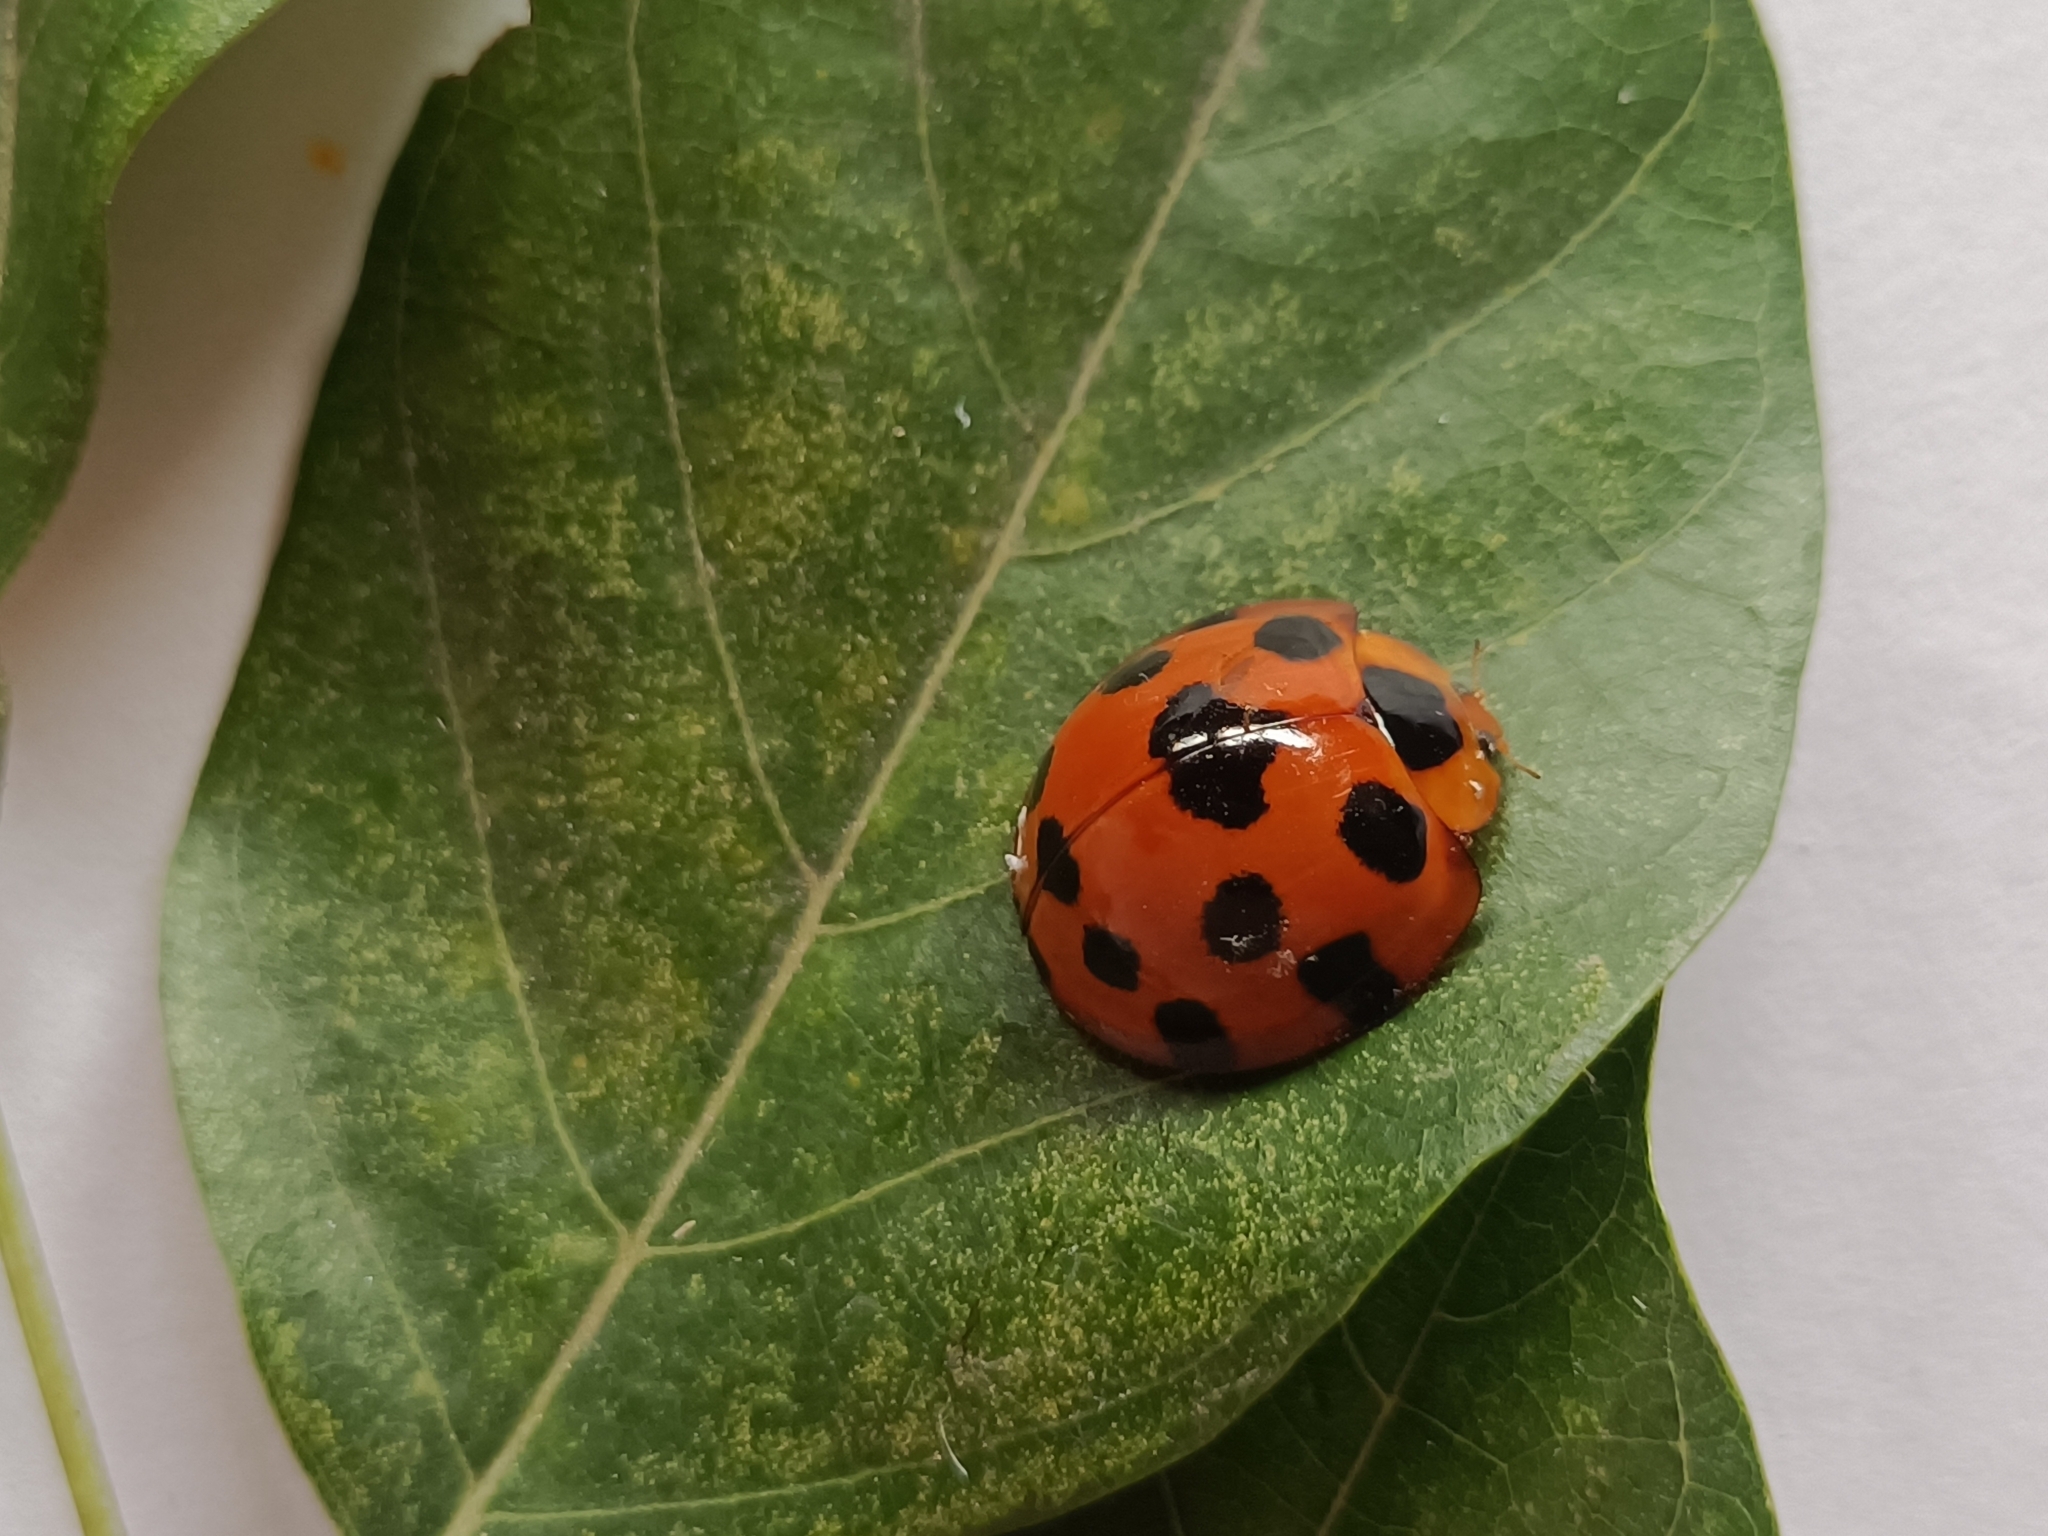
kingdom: Animalia
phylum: Arthropoda
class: Insecta
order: Coleoptera
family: Coccinellidae
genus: Synonycha
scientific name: Synonycha grandis
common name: Lady beetle
